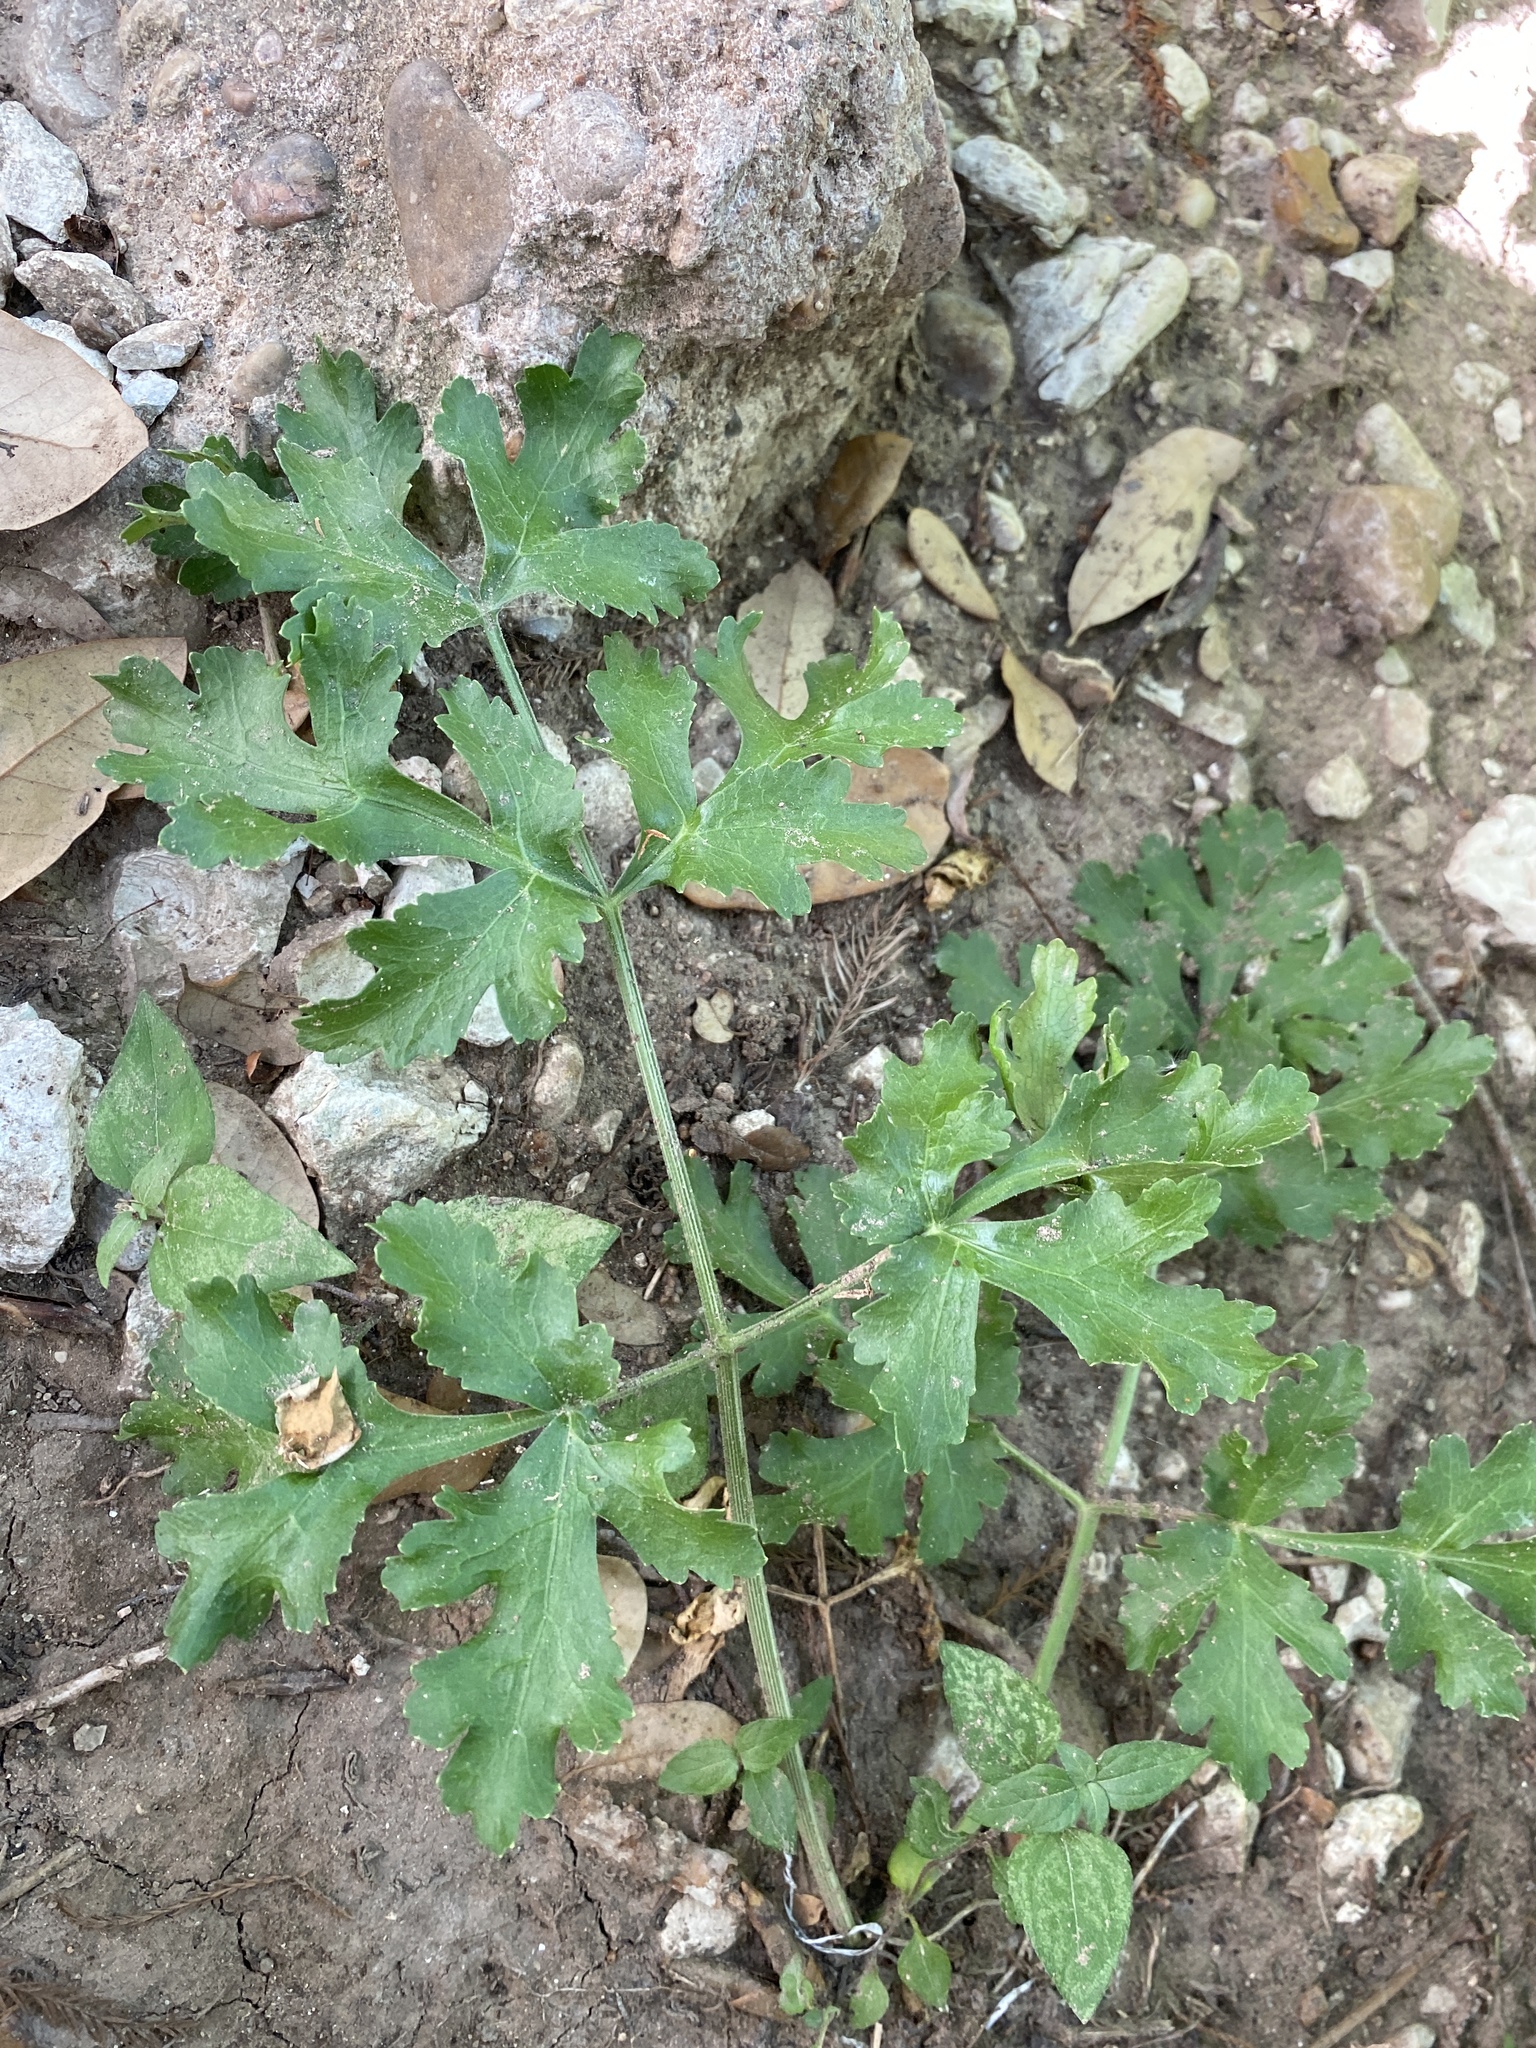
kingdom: Plantae
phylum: Tracheophyta
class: Magnoliopsida
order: Apiales
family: Apiaceae
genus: Polytaenia
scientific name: Polytaenia texana
